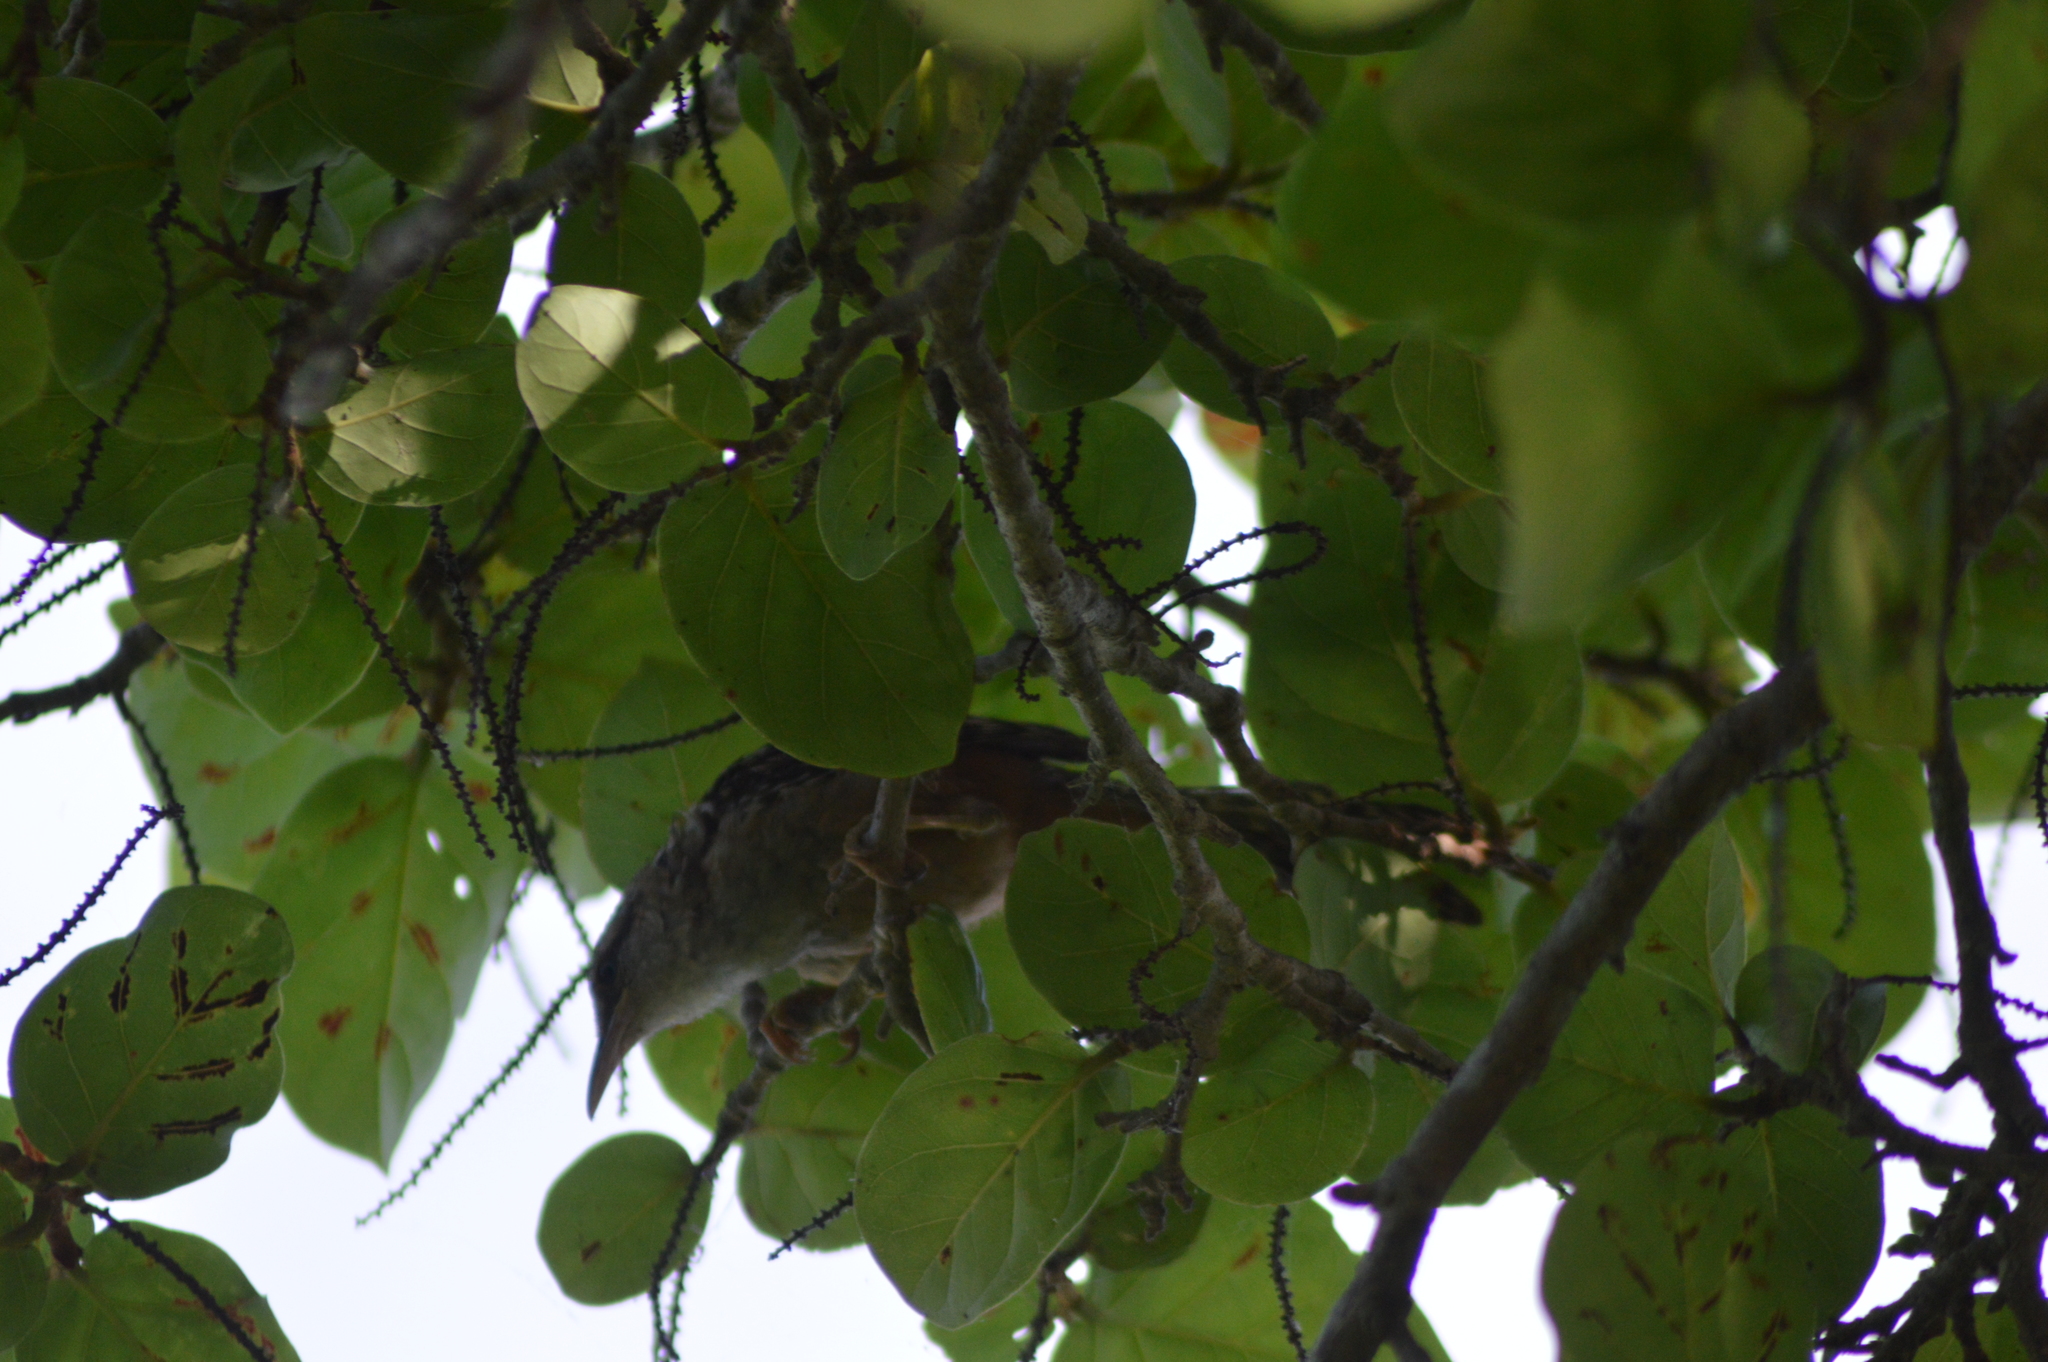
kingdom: Animalia
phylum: Chordata
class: Aves
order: Passeriformes
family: Troglodytidae
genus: Campylorhynchus
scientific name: Campylorhynchus zonatus
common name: Band-backed wren
